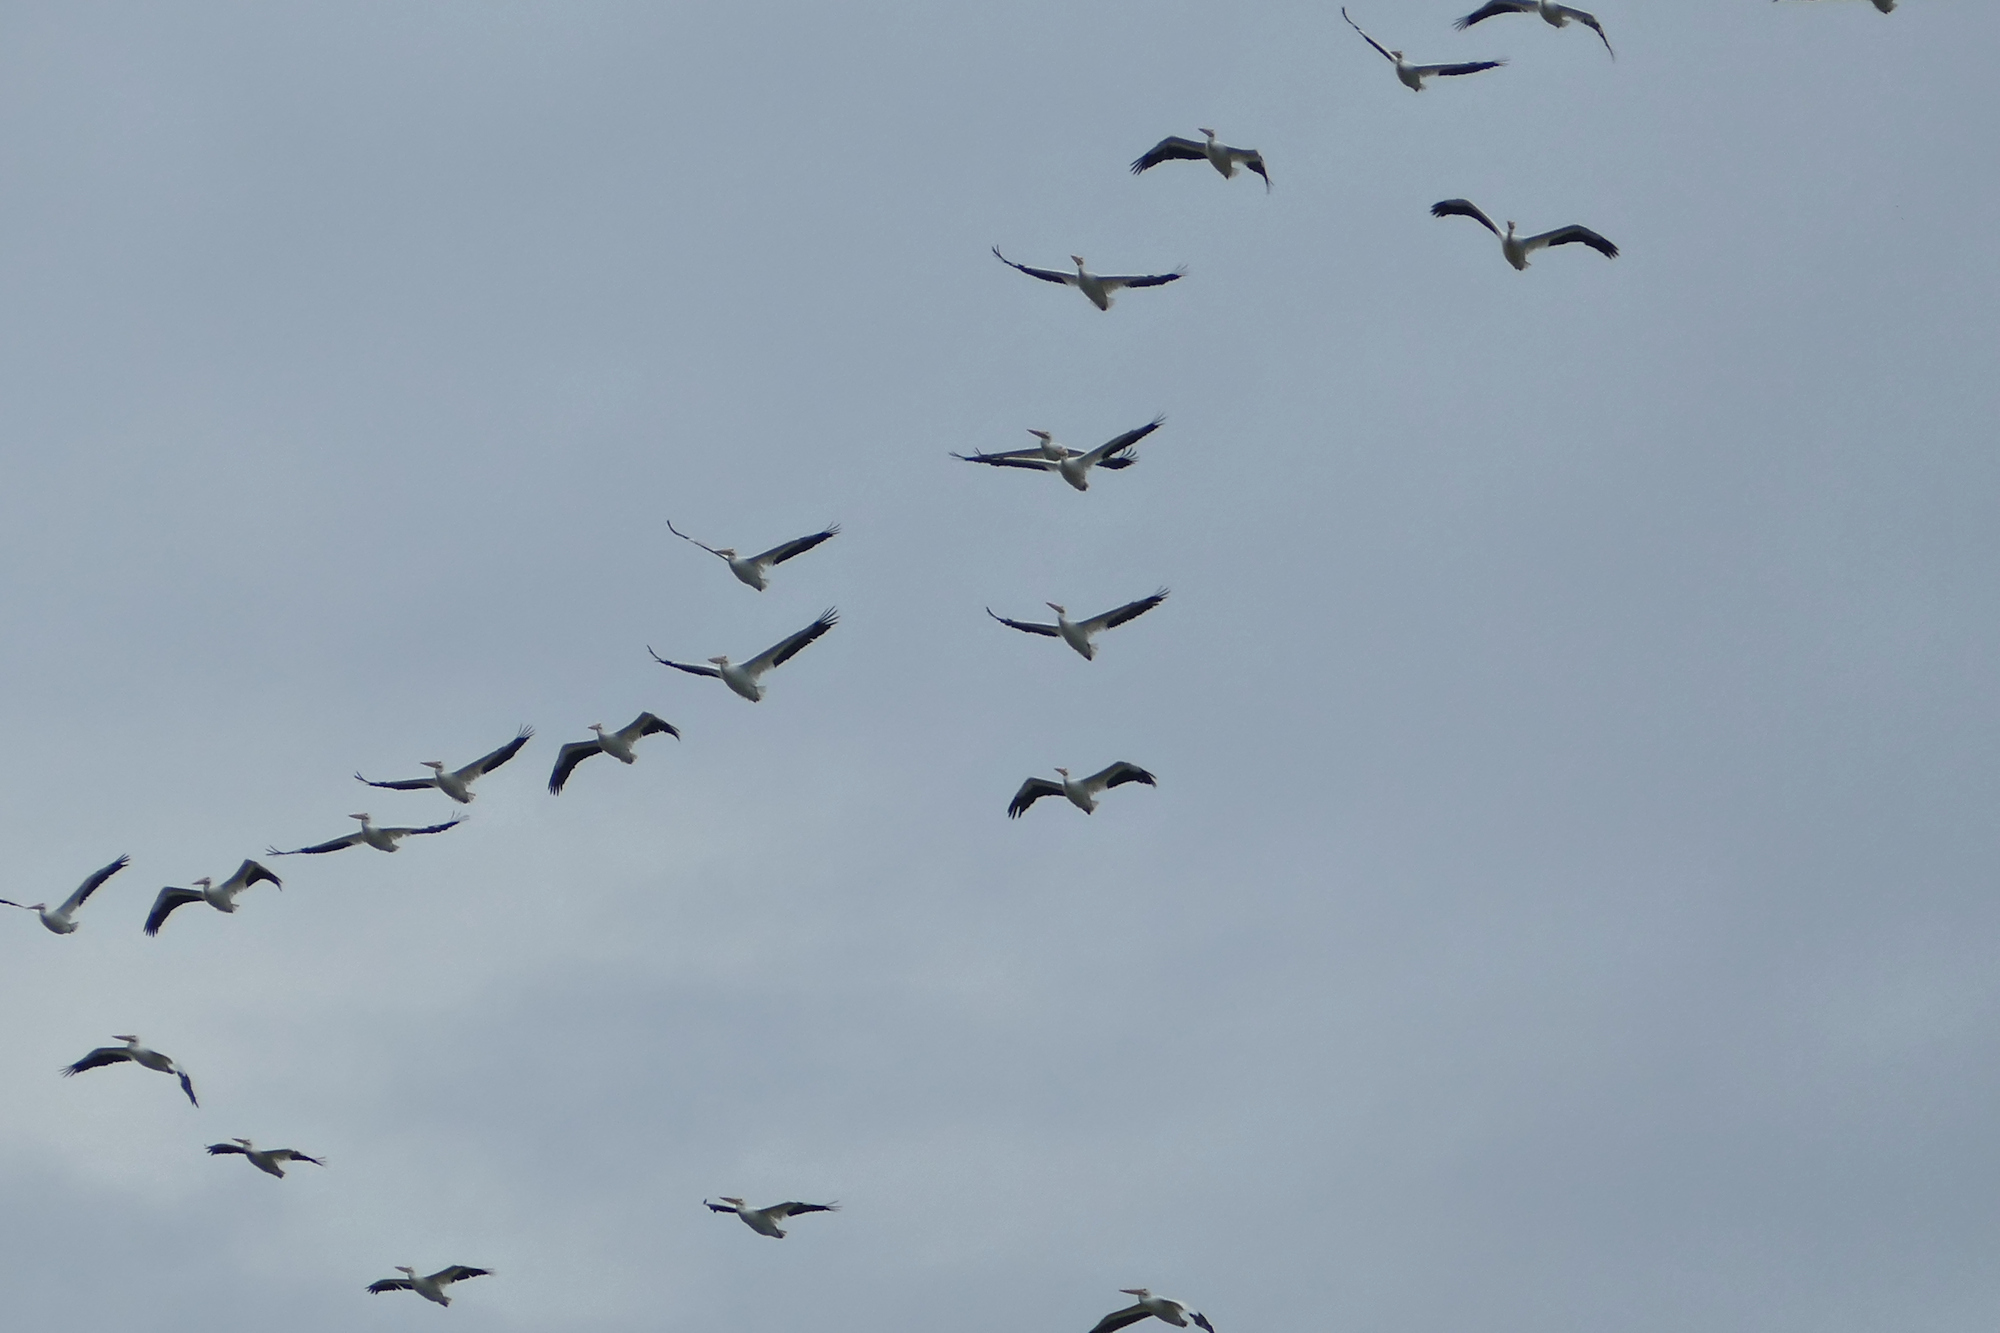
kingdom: Animalia
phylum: Chordata
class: Aves
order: Pelecaniformes
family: Pelecanidae
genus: Pelecanus
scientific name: Pelecanus erythrorhynchos
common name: American white pelican
